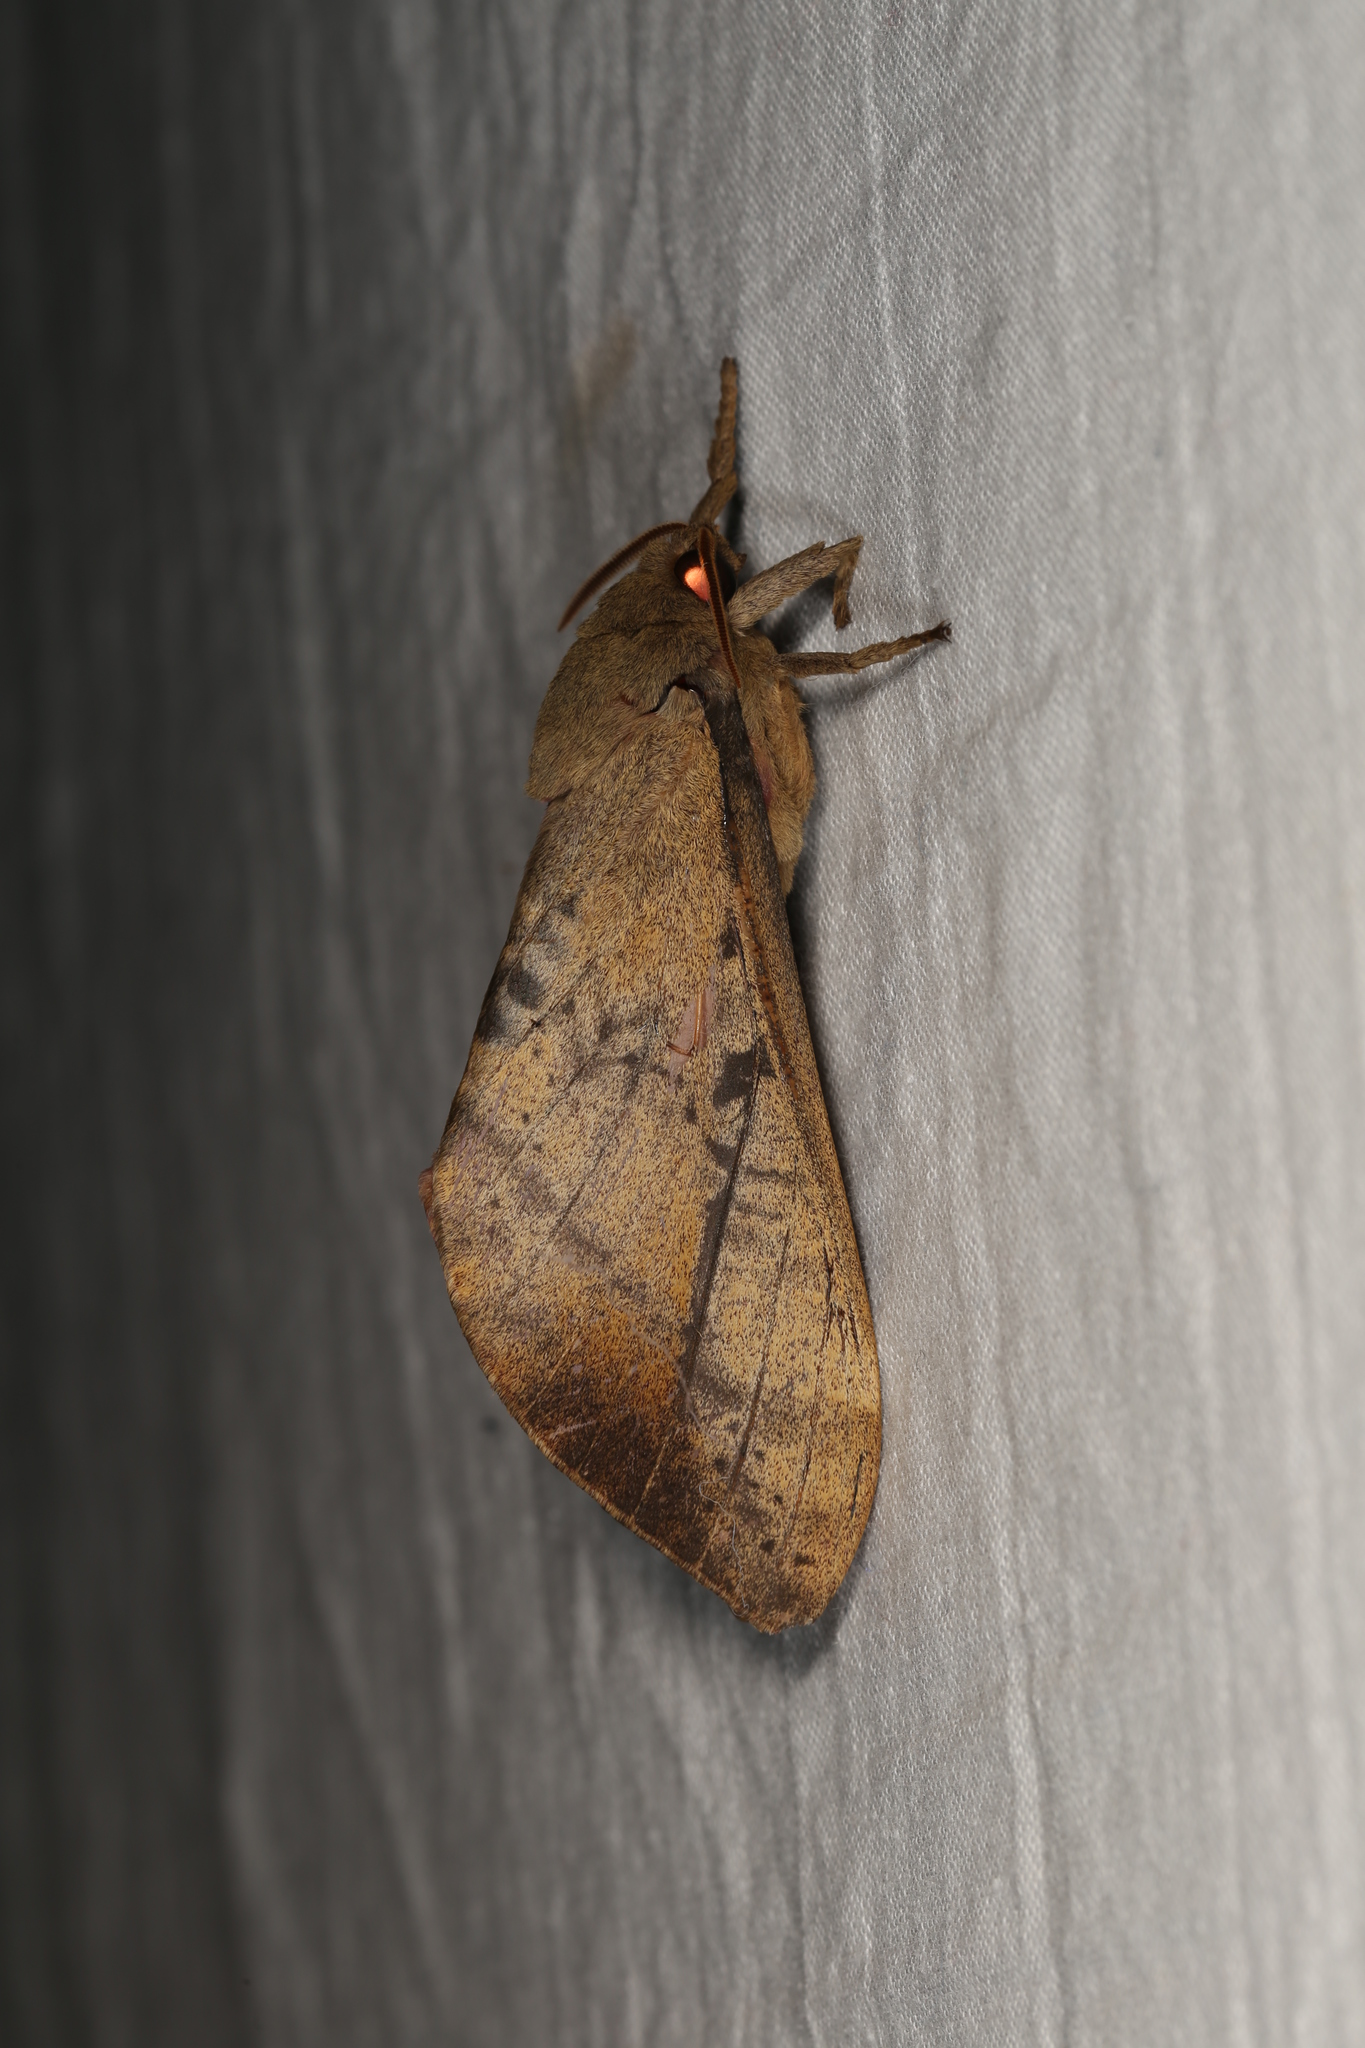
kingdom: Animalia
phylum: Arthropoda
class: Insecta
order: Lepidoptera
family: Hepialidae
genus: Oxycanus
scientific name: Oxycanus beltista
